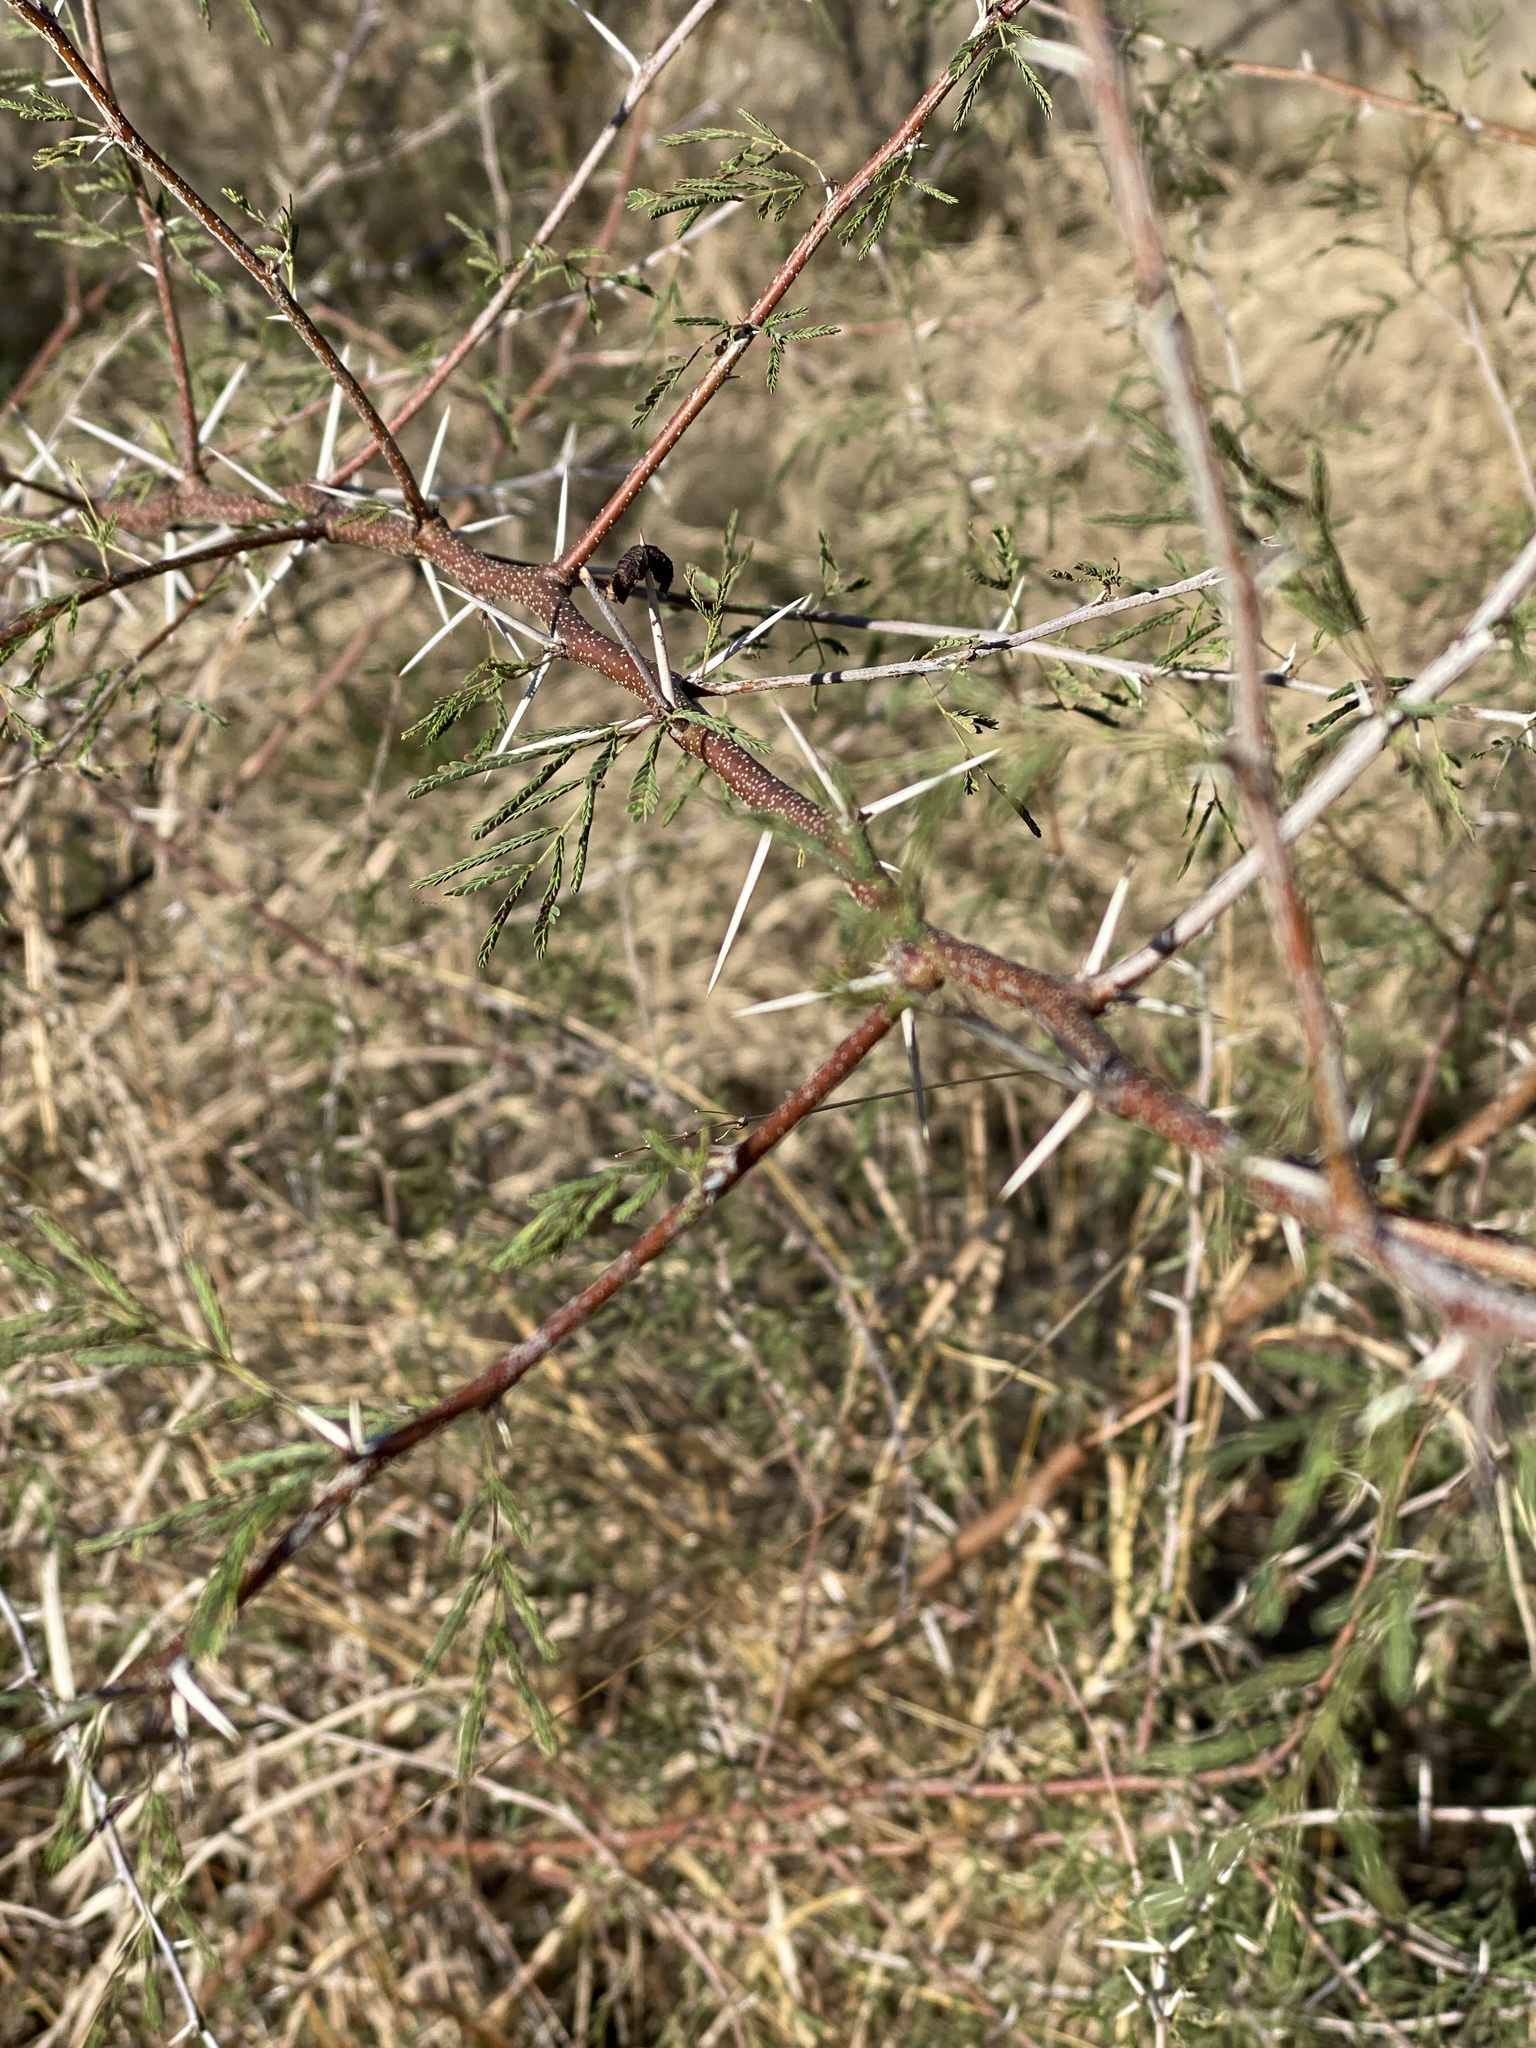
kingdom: Plantae
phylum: Tracheophyta
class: Magnoliopsida
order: Fabales
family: Fabaceae
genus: Vachellia
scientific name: Vachellia farnesiana
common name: Sweet acacia
